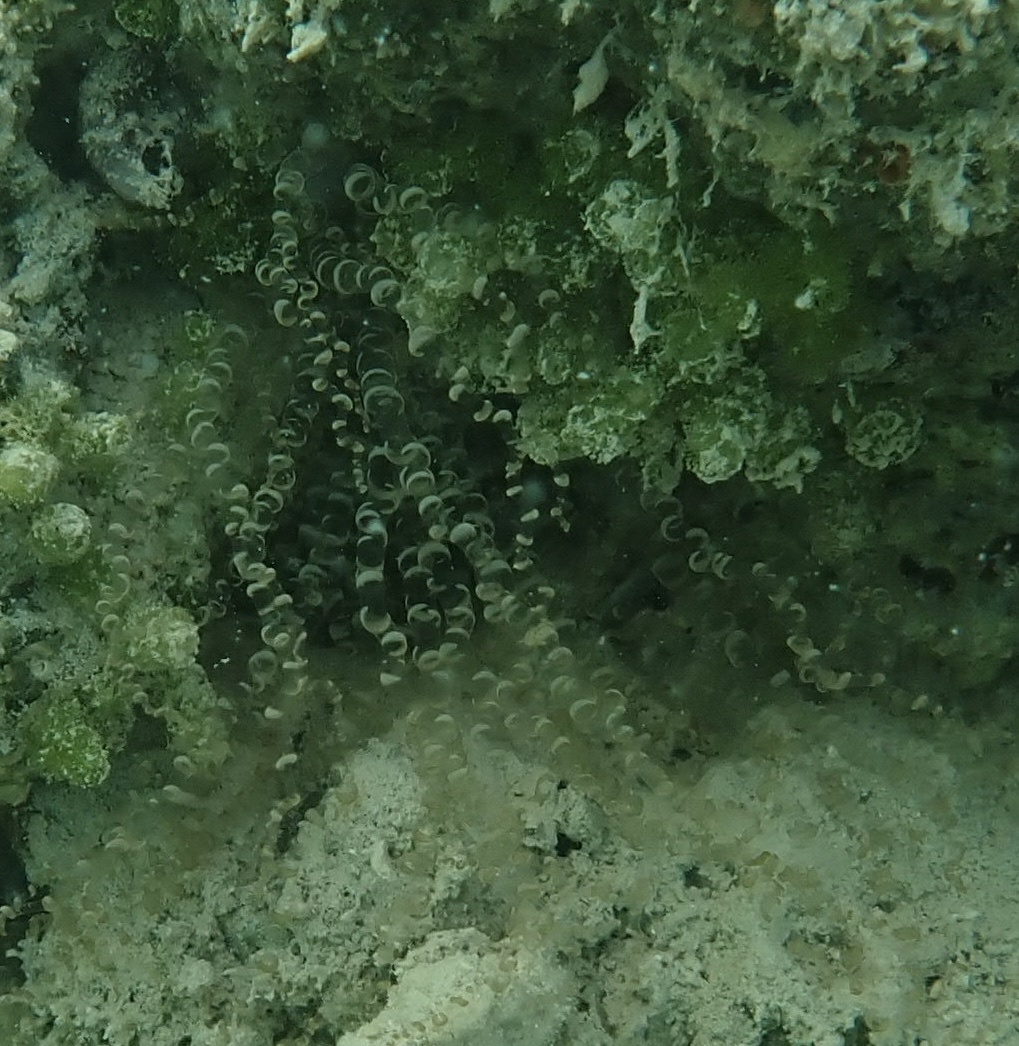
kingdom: Animalia
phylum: Cnidaria
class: Anthozoa
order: Actiniaria
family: Aiptasiidae
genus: Bartholomea
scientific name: Bartholomea annulata
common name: Corkscrew anemone
